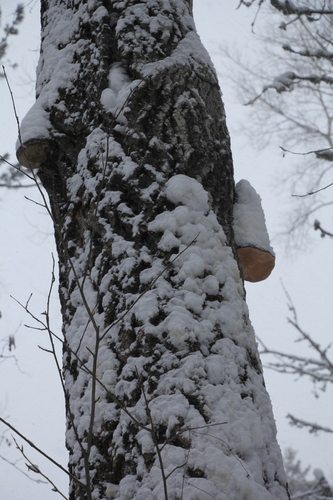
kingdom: Fungi
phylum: Basidiomycota
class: Agaricomycetes
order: Polyporales
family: Polyporaceae
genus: Fomes
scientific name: Fomes fomentarius
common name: Hoof fungus
